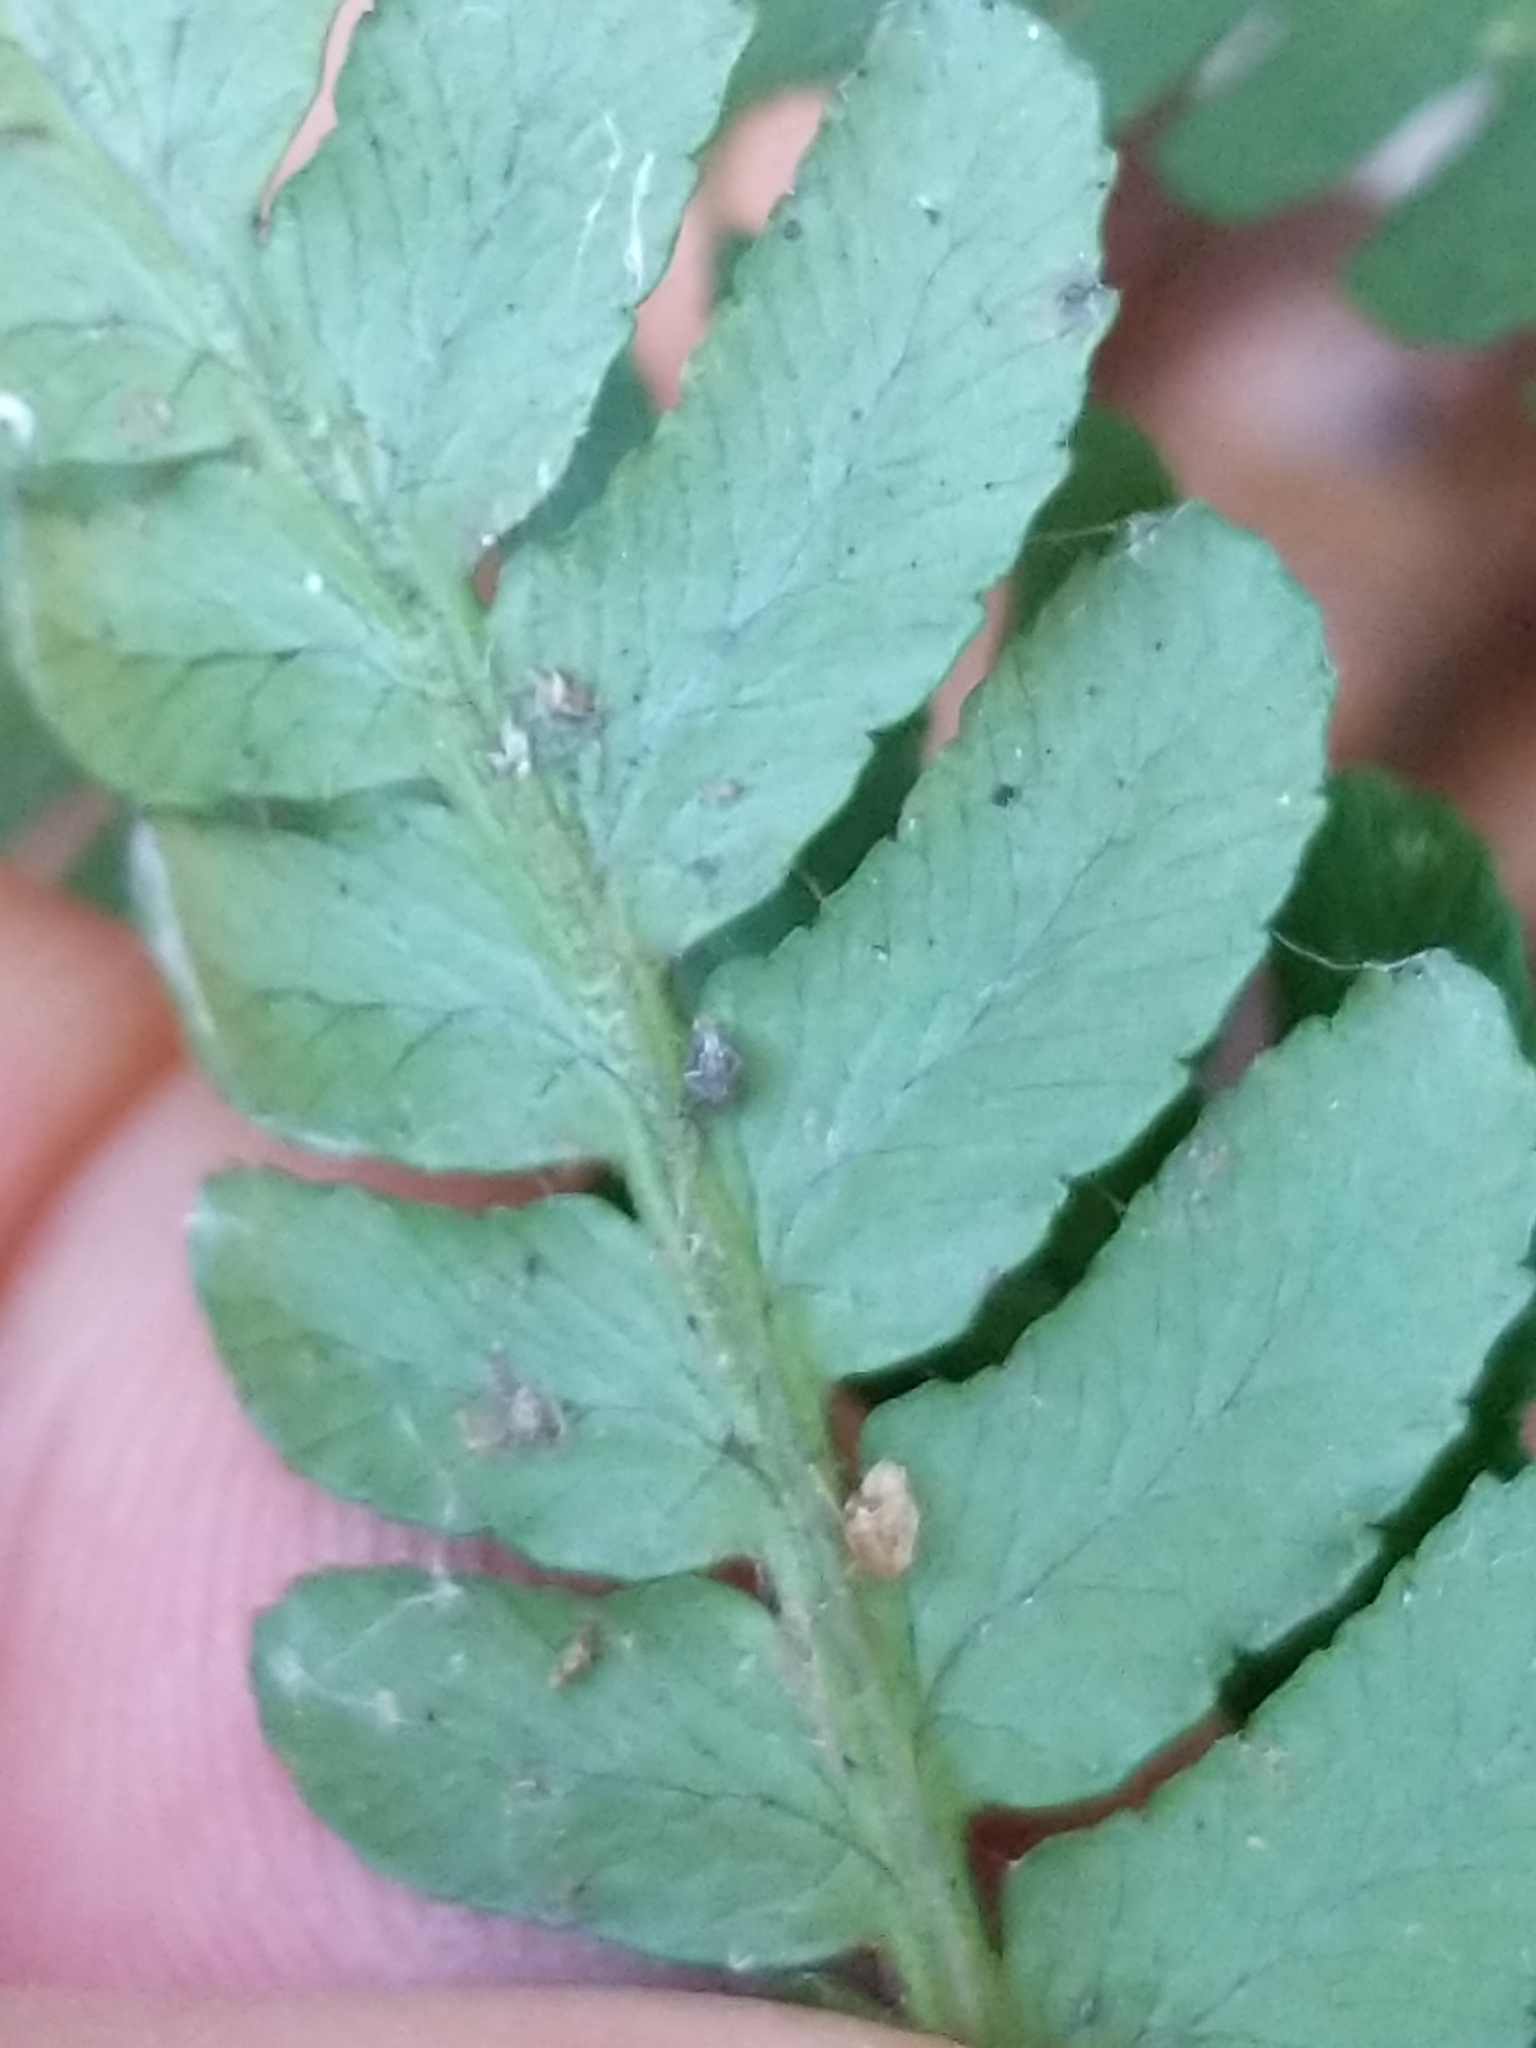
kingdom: Plantae
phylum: Tracheophyta
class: Polypodiopsida
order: Polypodiales
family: Dryopteridaceae
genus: Dryopteris
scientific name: Dryopteris marginalis
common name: Marginal wood fern
